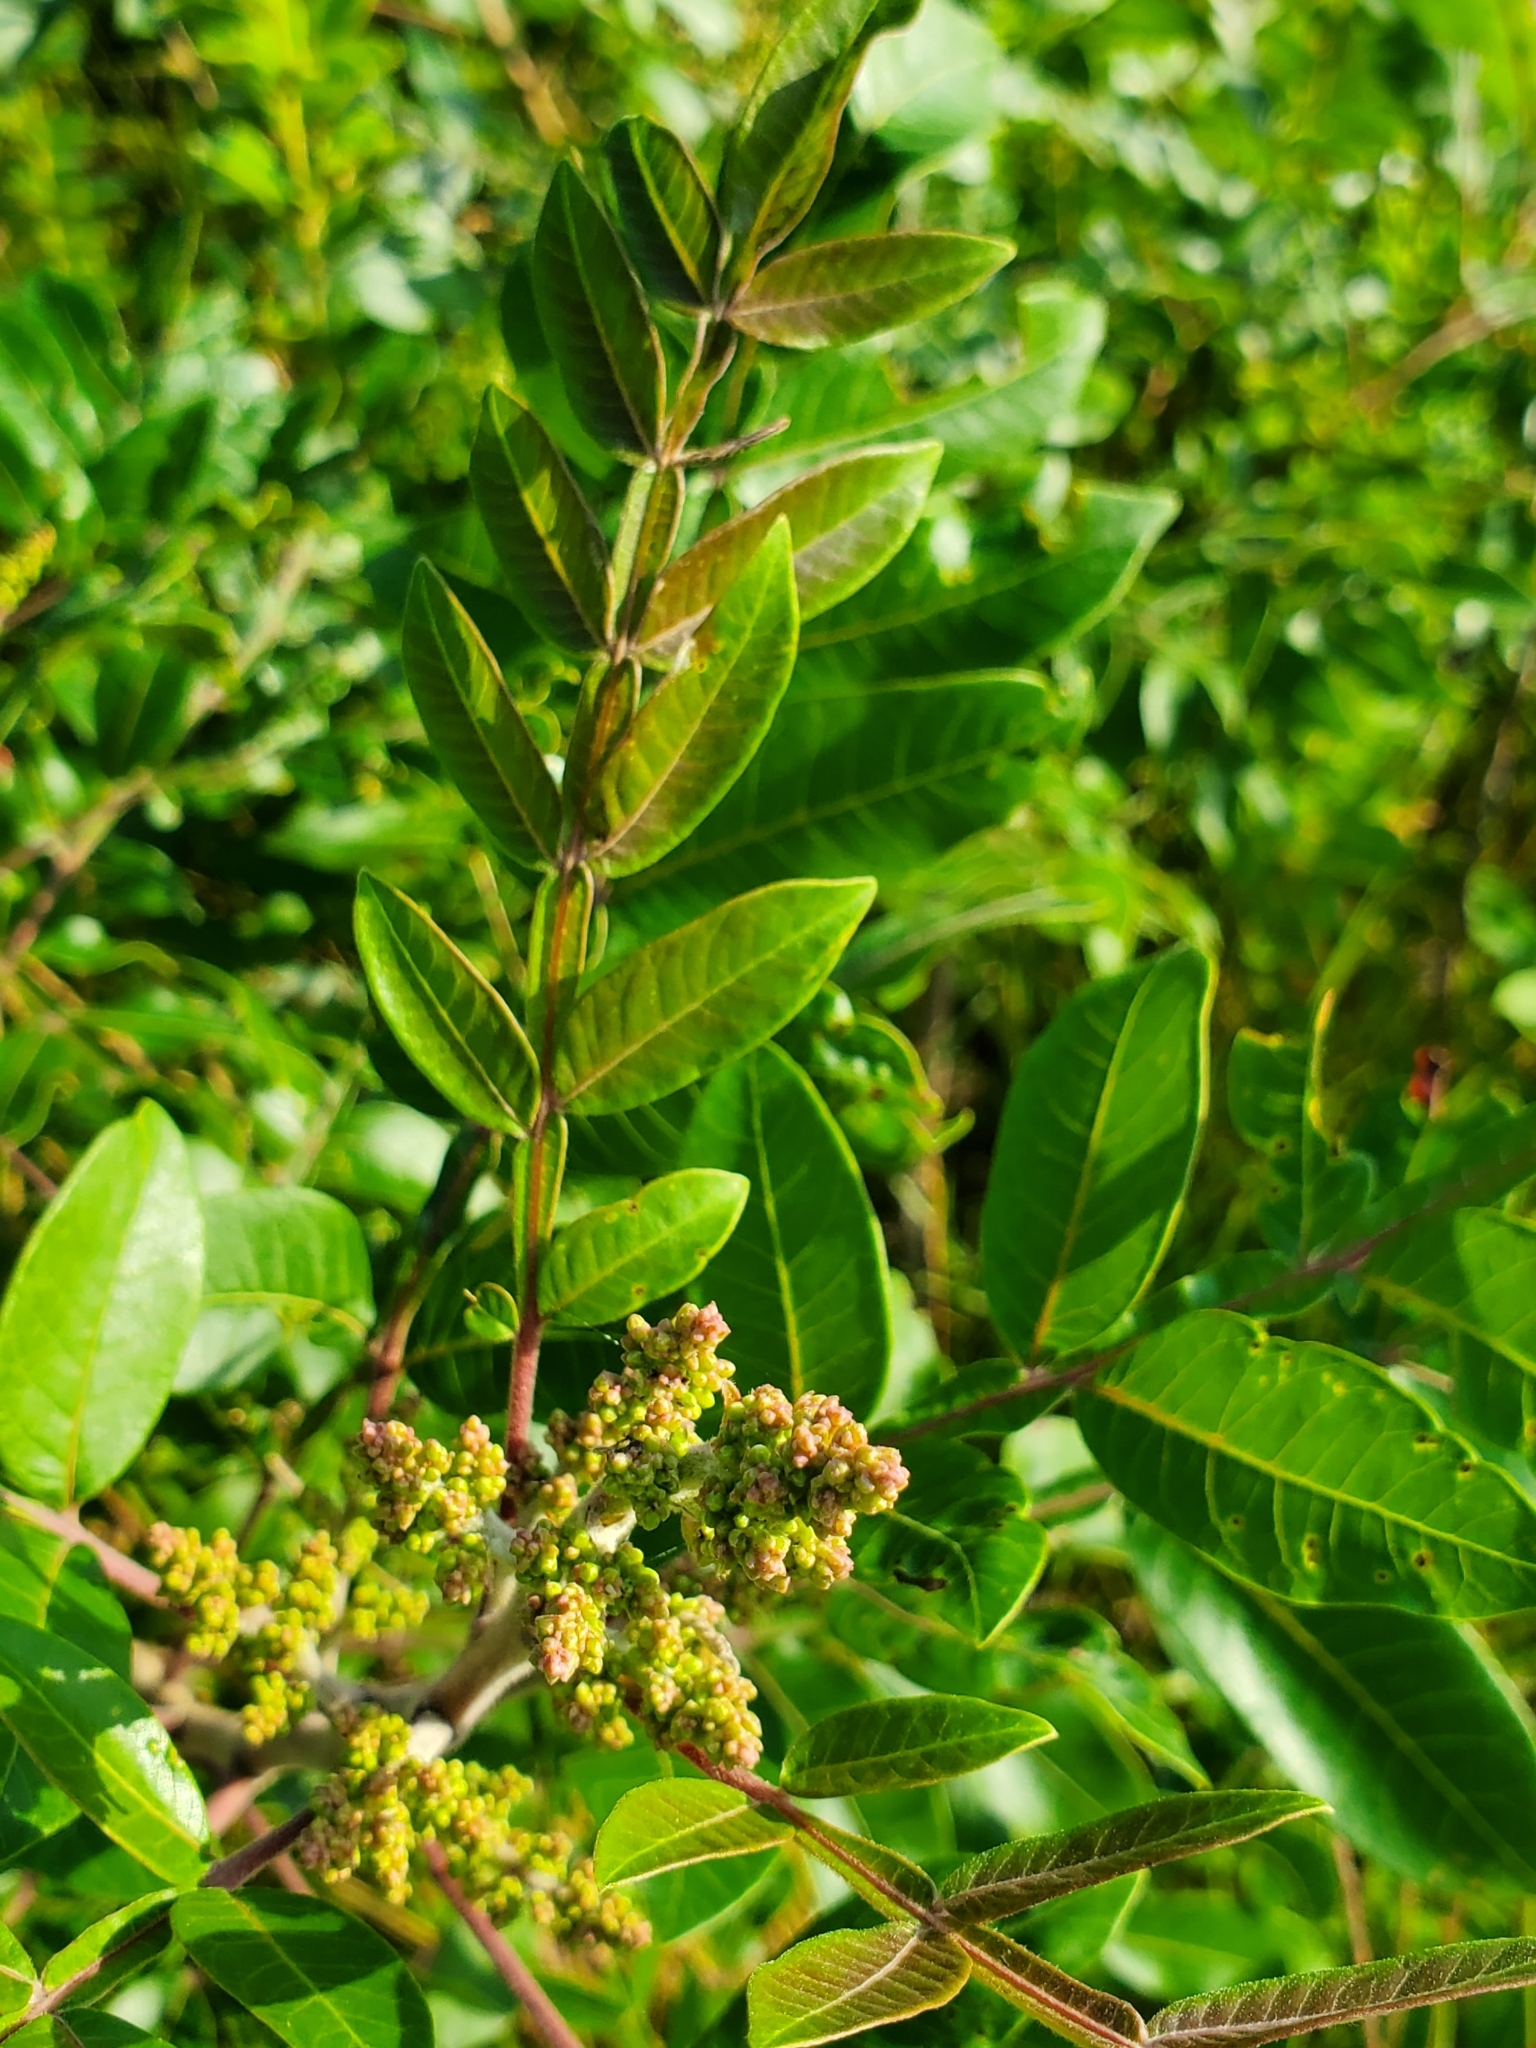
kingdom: Plantae
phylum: Tracheophyta
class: Magnoliopsida
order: Sapindales
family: Anacardiaceae
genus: Rhus
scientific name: Rhus copallina
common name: Shining sumac
